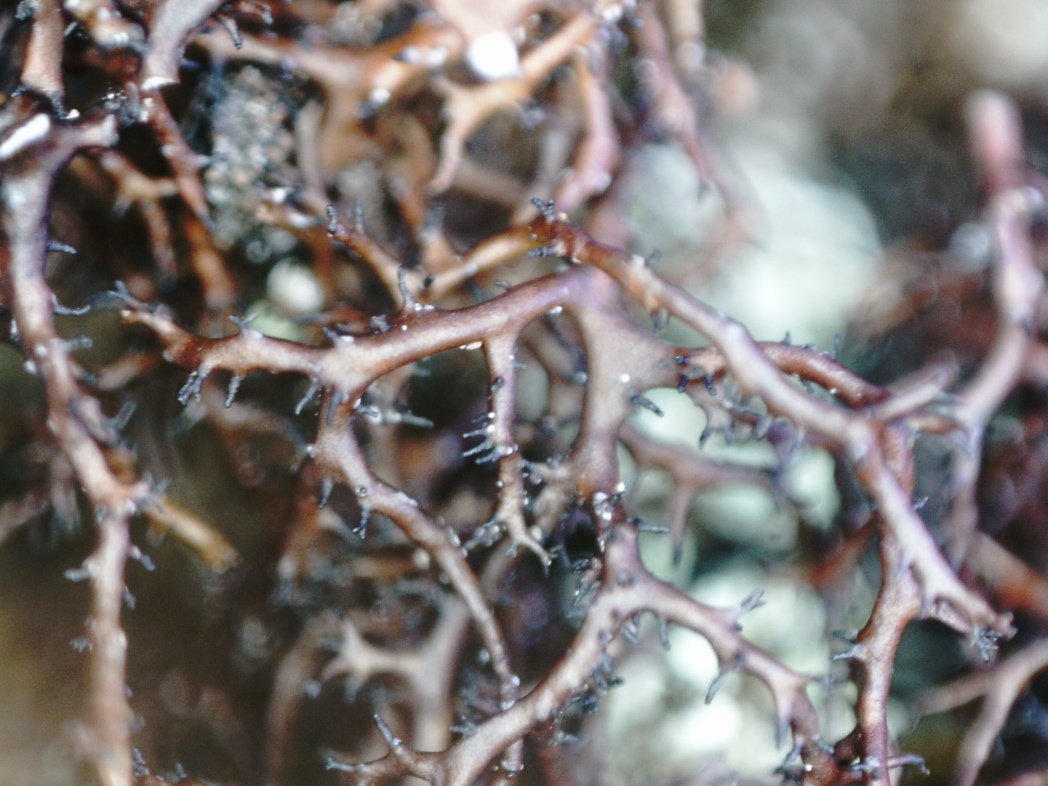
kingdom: Fungi
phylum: Ascomycota
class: Lecanoromycetes
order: Lecanorales
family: Parmeliaceae
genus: Cetraria
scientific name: Cetraria muricata
